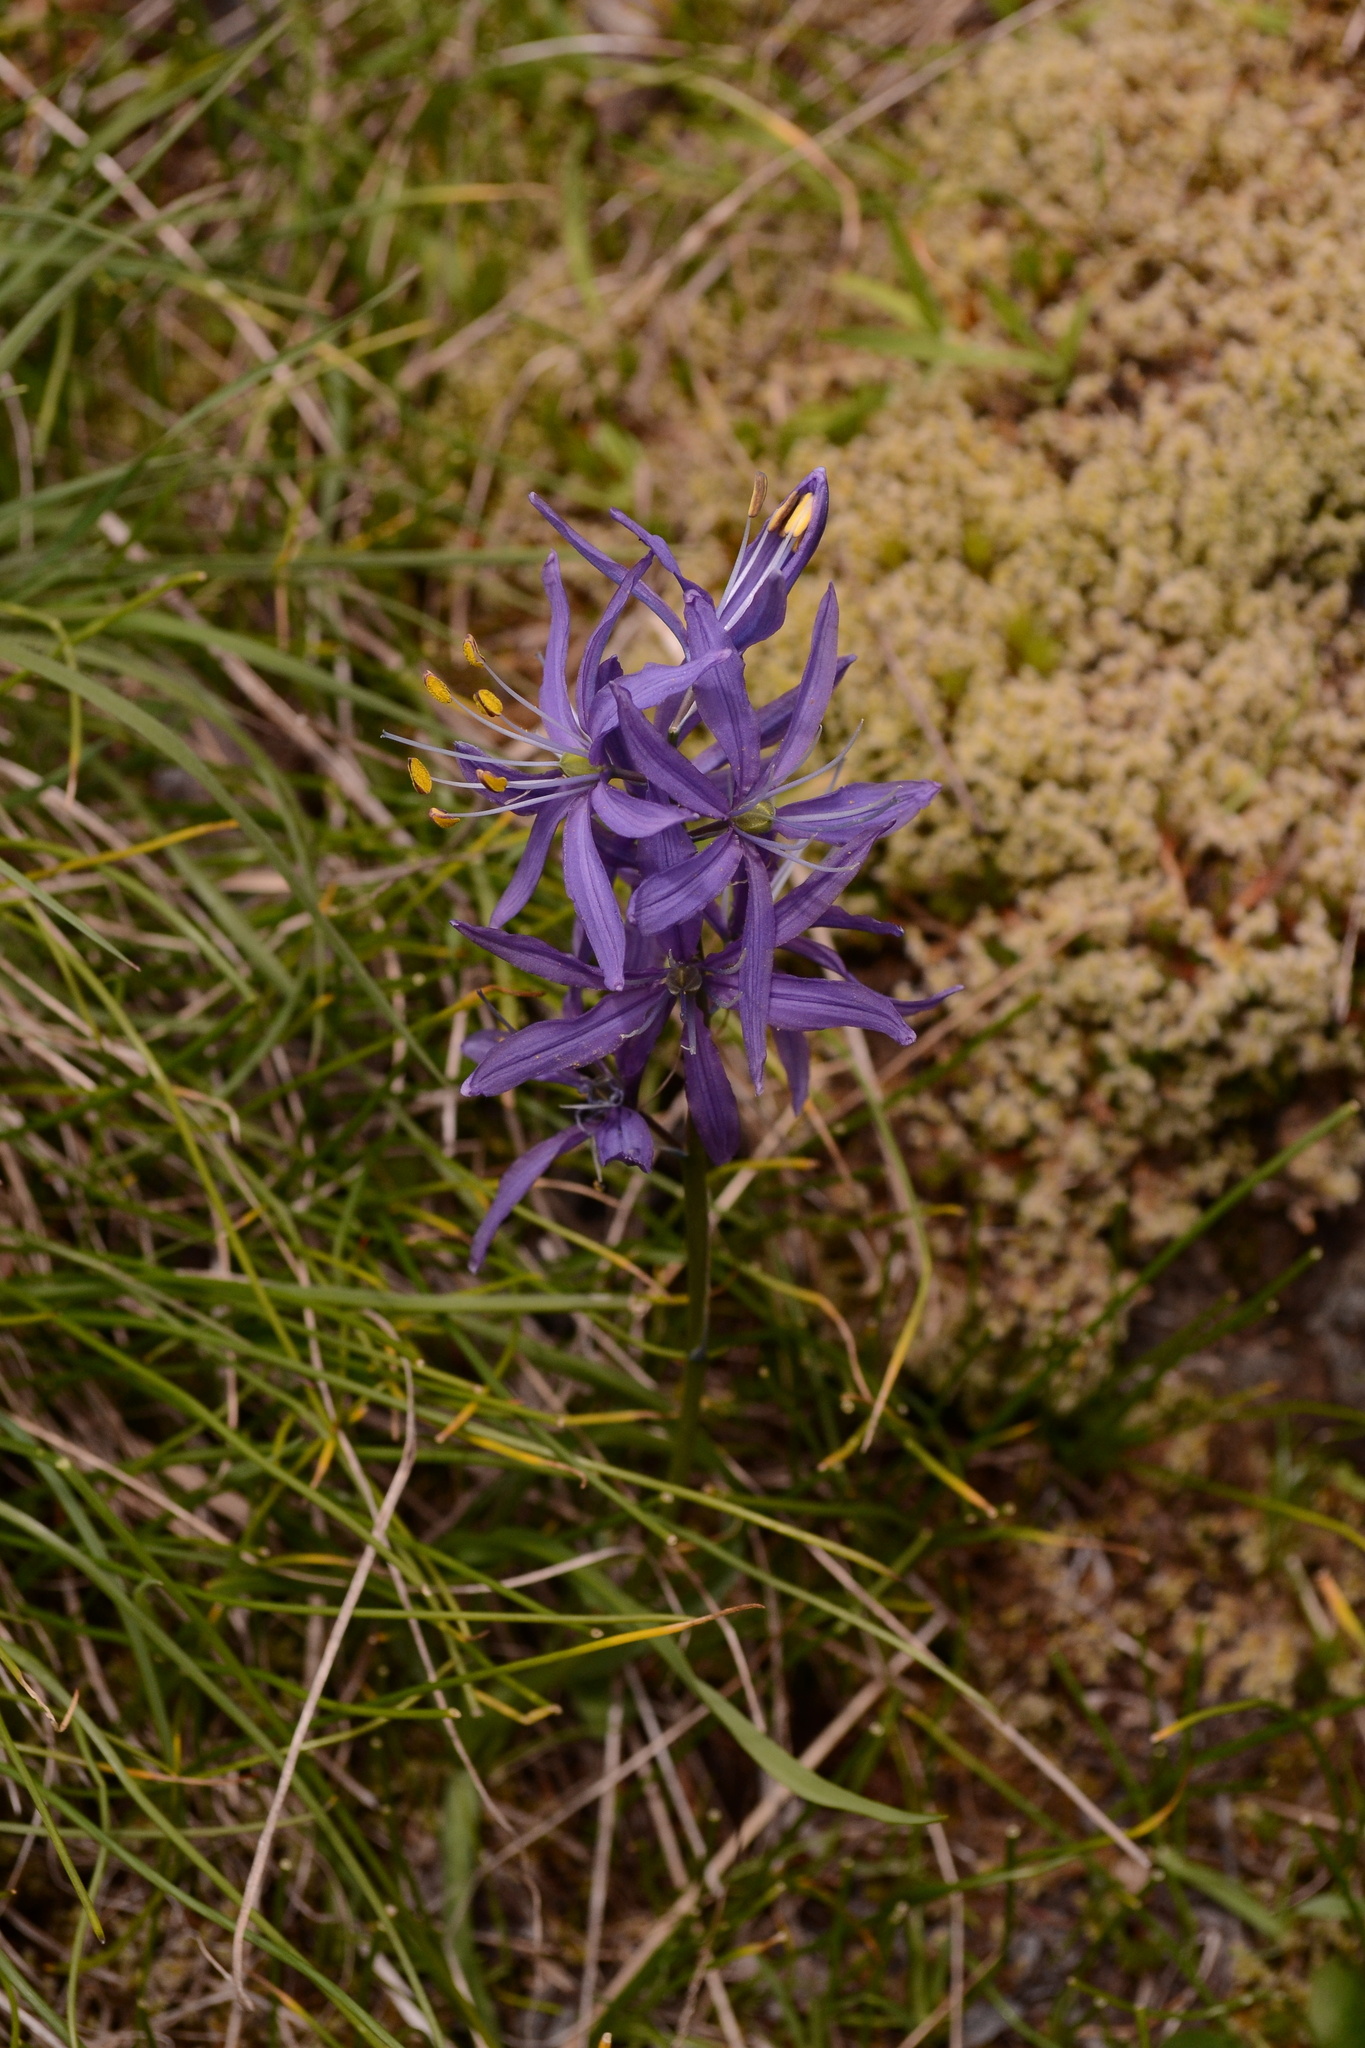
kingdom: Plantae
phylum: Tracheophyta
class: Liliopsida
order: Asparagales
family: Asparagaceae
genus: Camassia
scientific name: Camassia quamash
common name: Common camas
